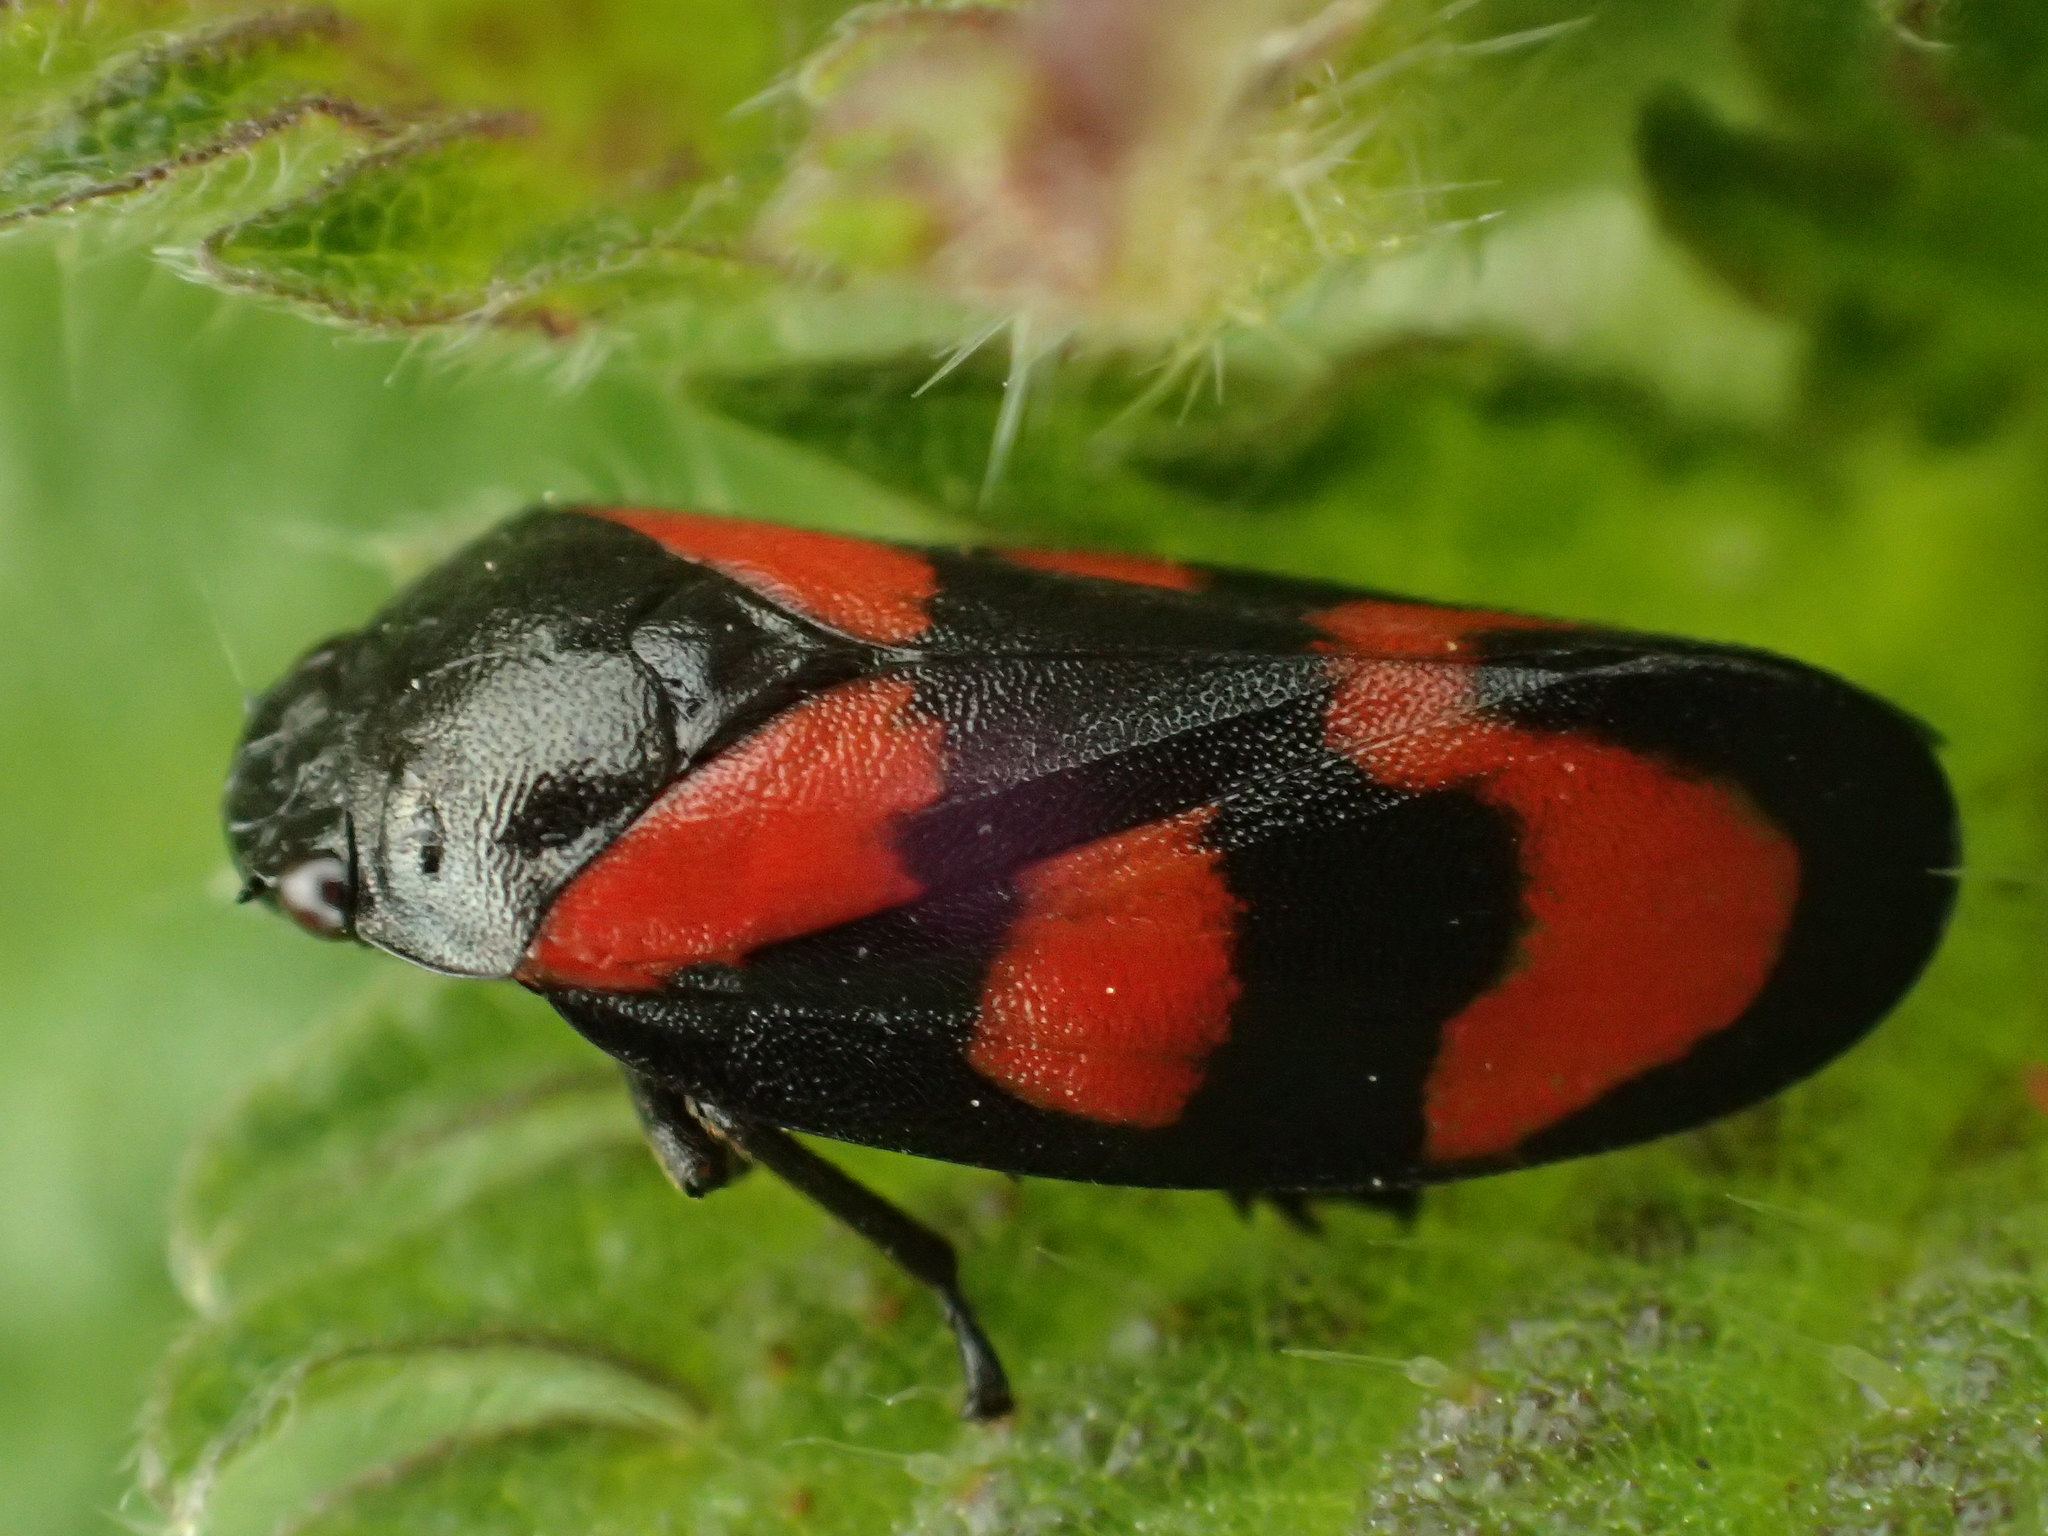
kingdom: Animalia
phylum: Arthropoda
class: Insecta
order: Hemiptera
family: Cercopidae
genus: Cercopis
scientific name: Cercopis vulnerata
